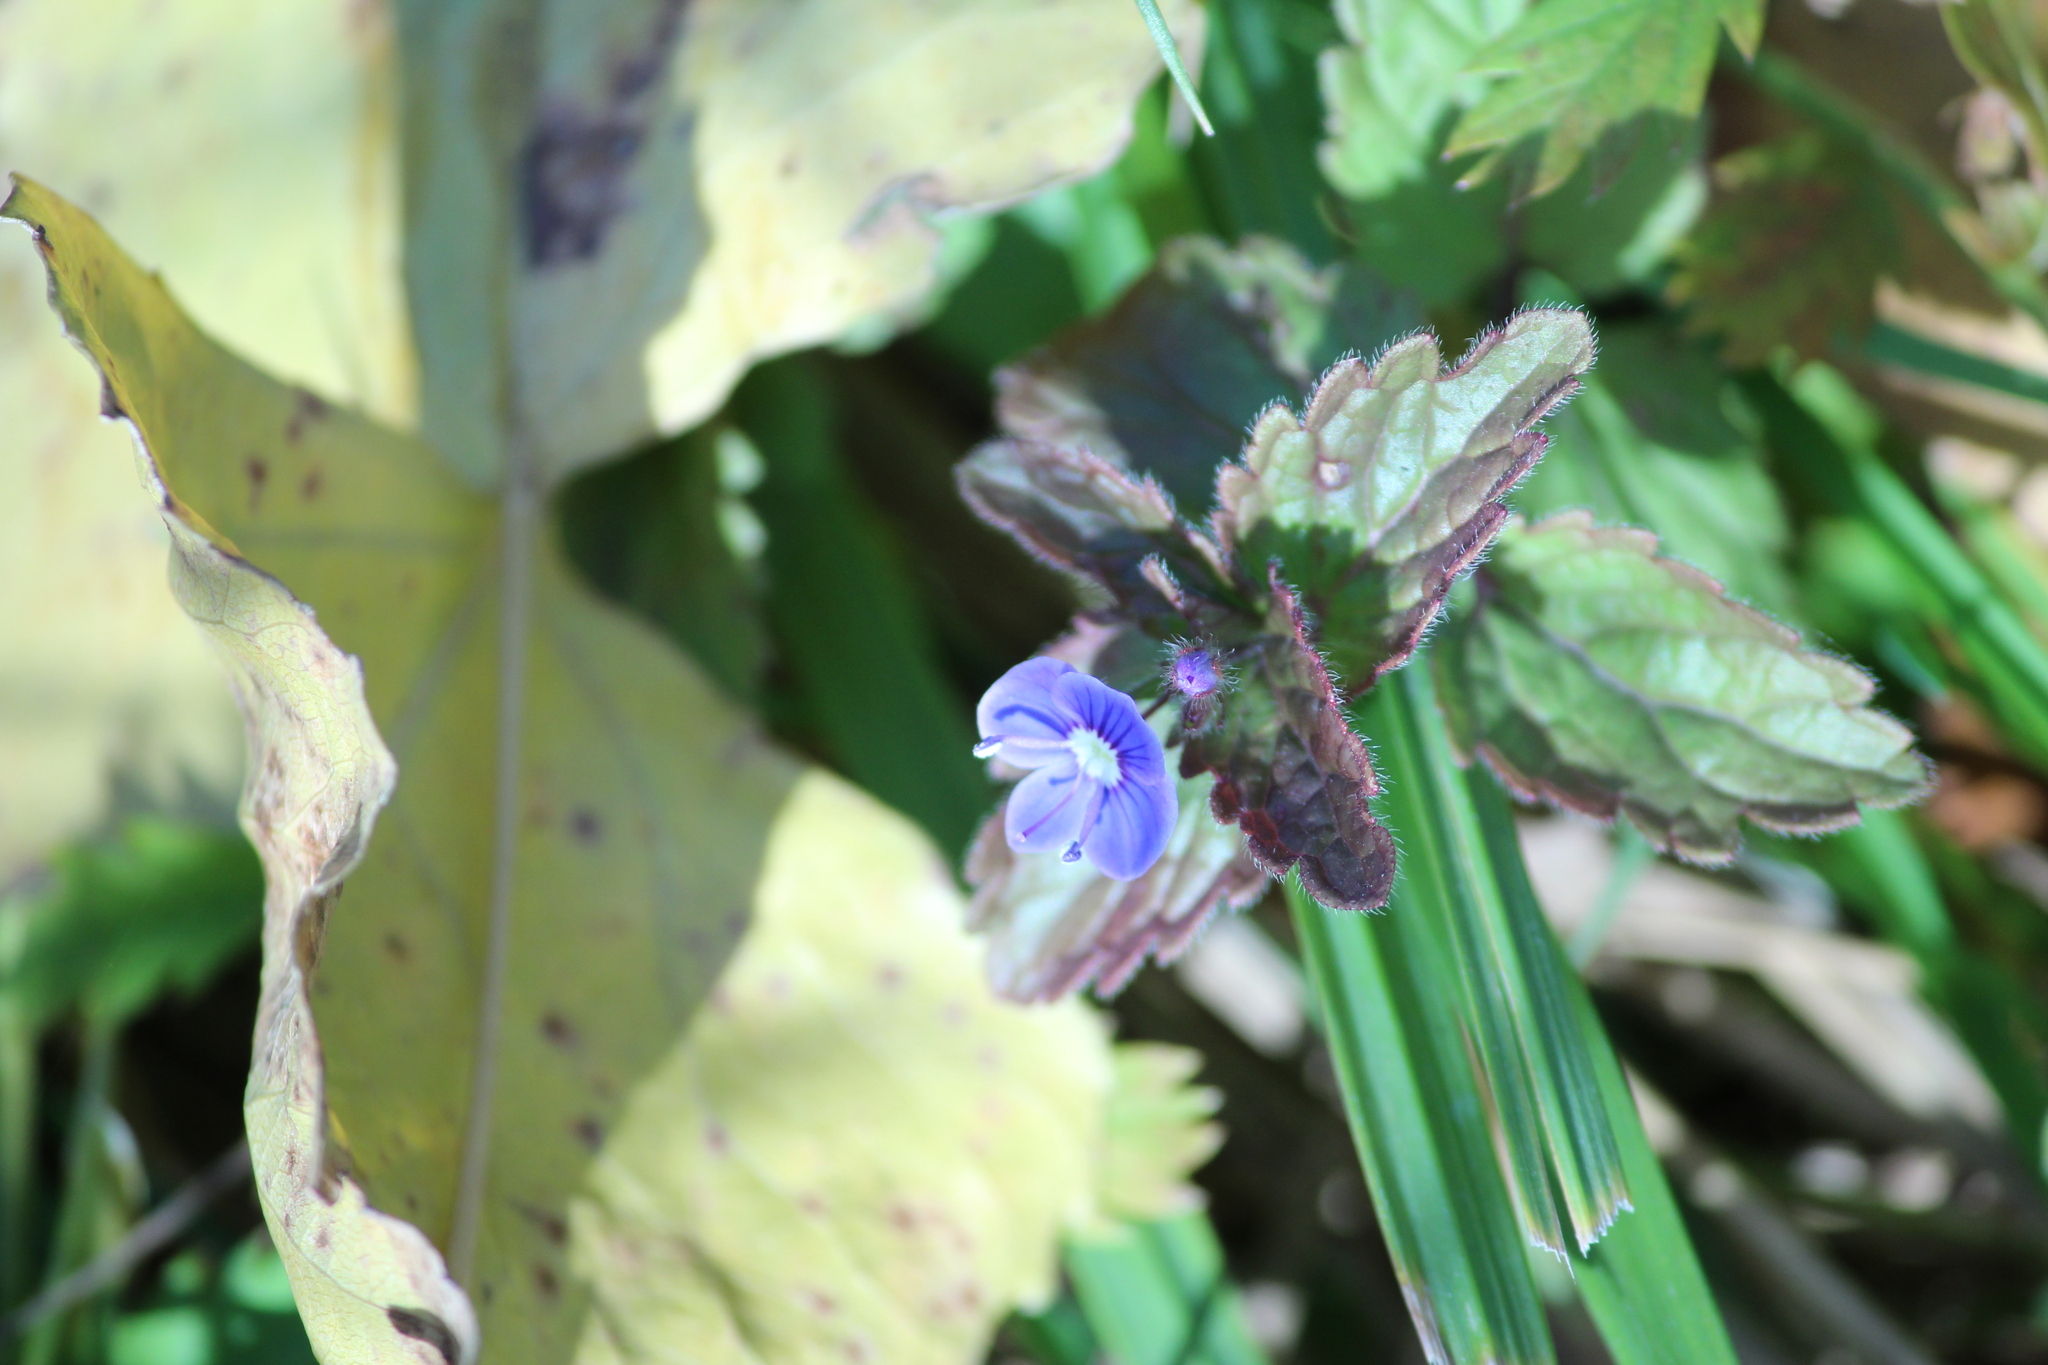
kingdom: Plantae
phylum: Tracheophyta
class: Magnoliopsida
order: Lamiales
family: Plantaginaceae
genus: Veronica
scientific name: Veronica chamaedrys
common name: Germander speedwell
